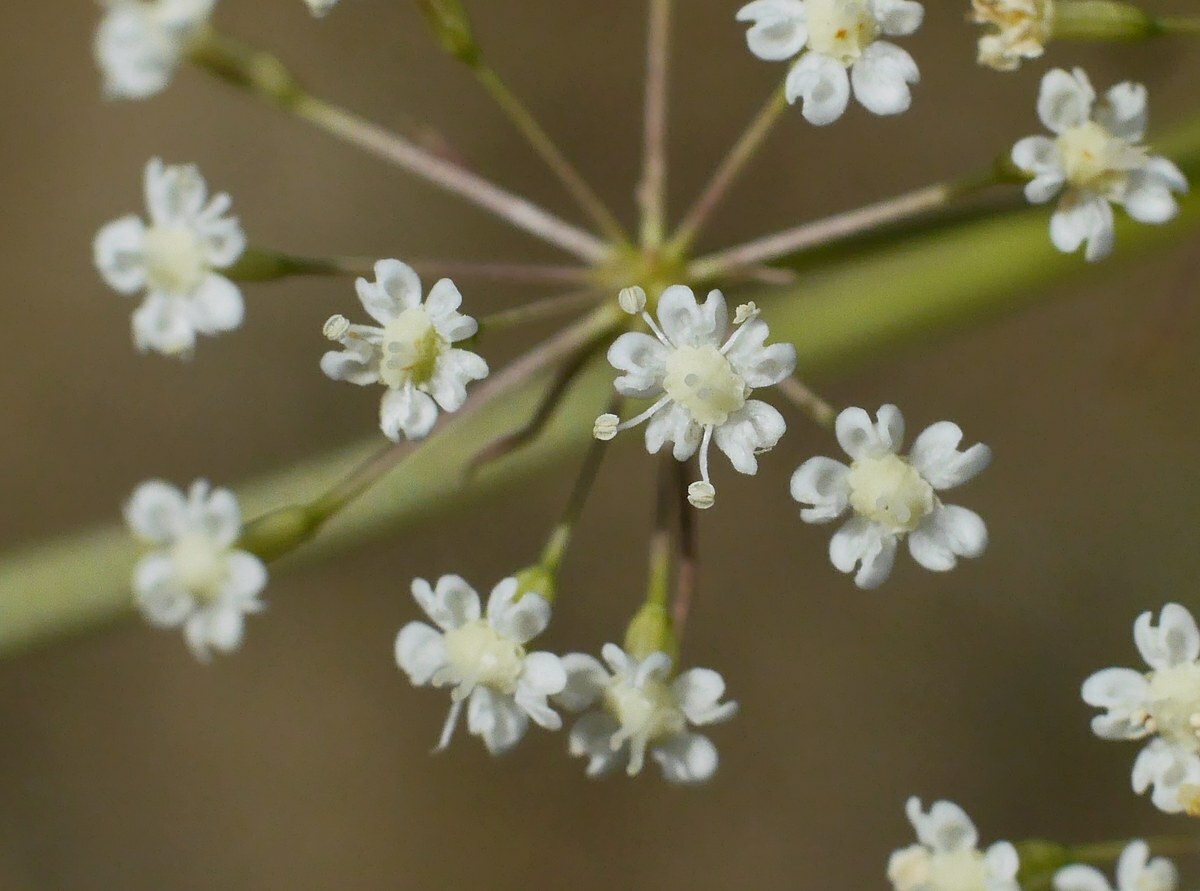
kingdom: Plantae
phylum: Tracheophyta
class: Magnoliopsida
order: Apiales
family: Apiaceae
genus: Falcaria
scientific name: Falcaria vulgaris
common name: Longleaf
